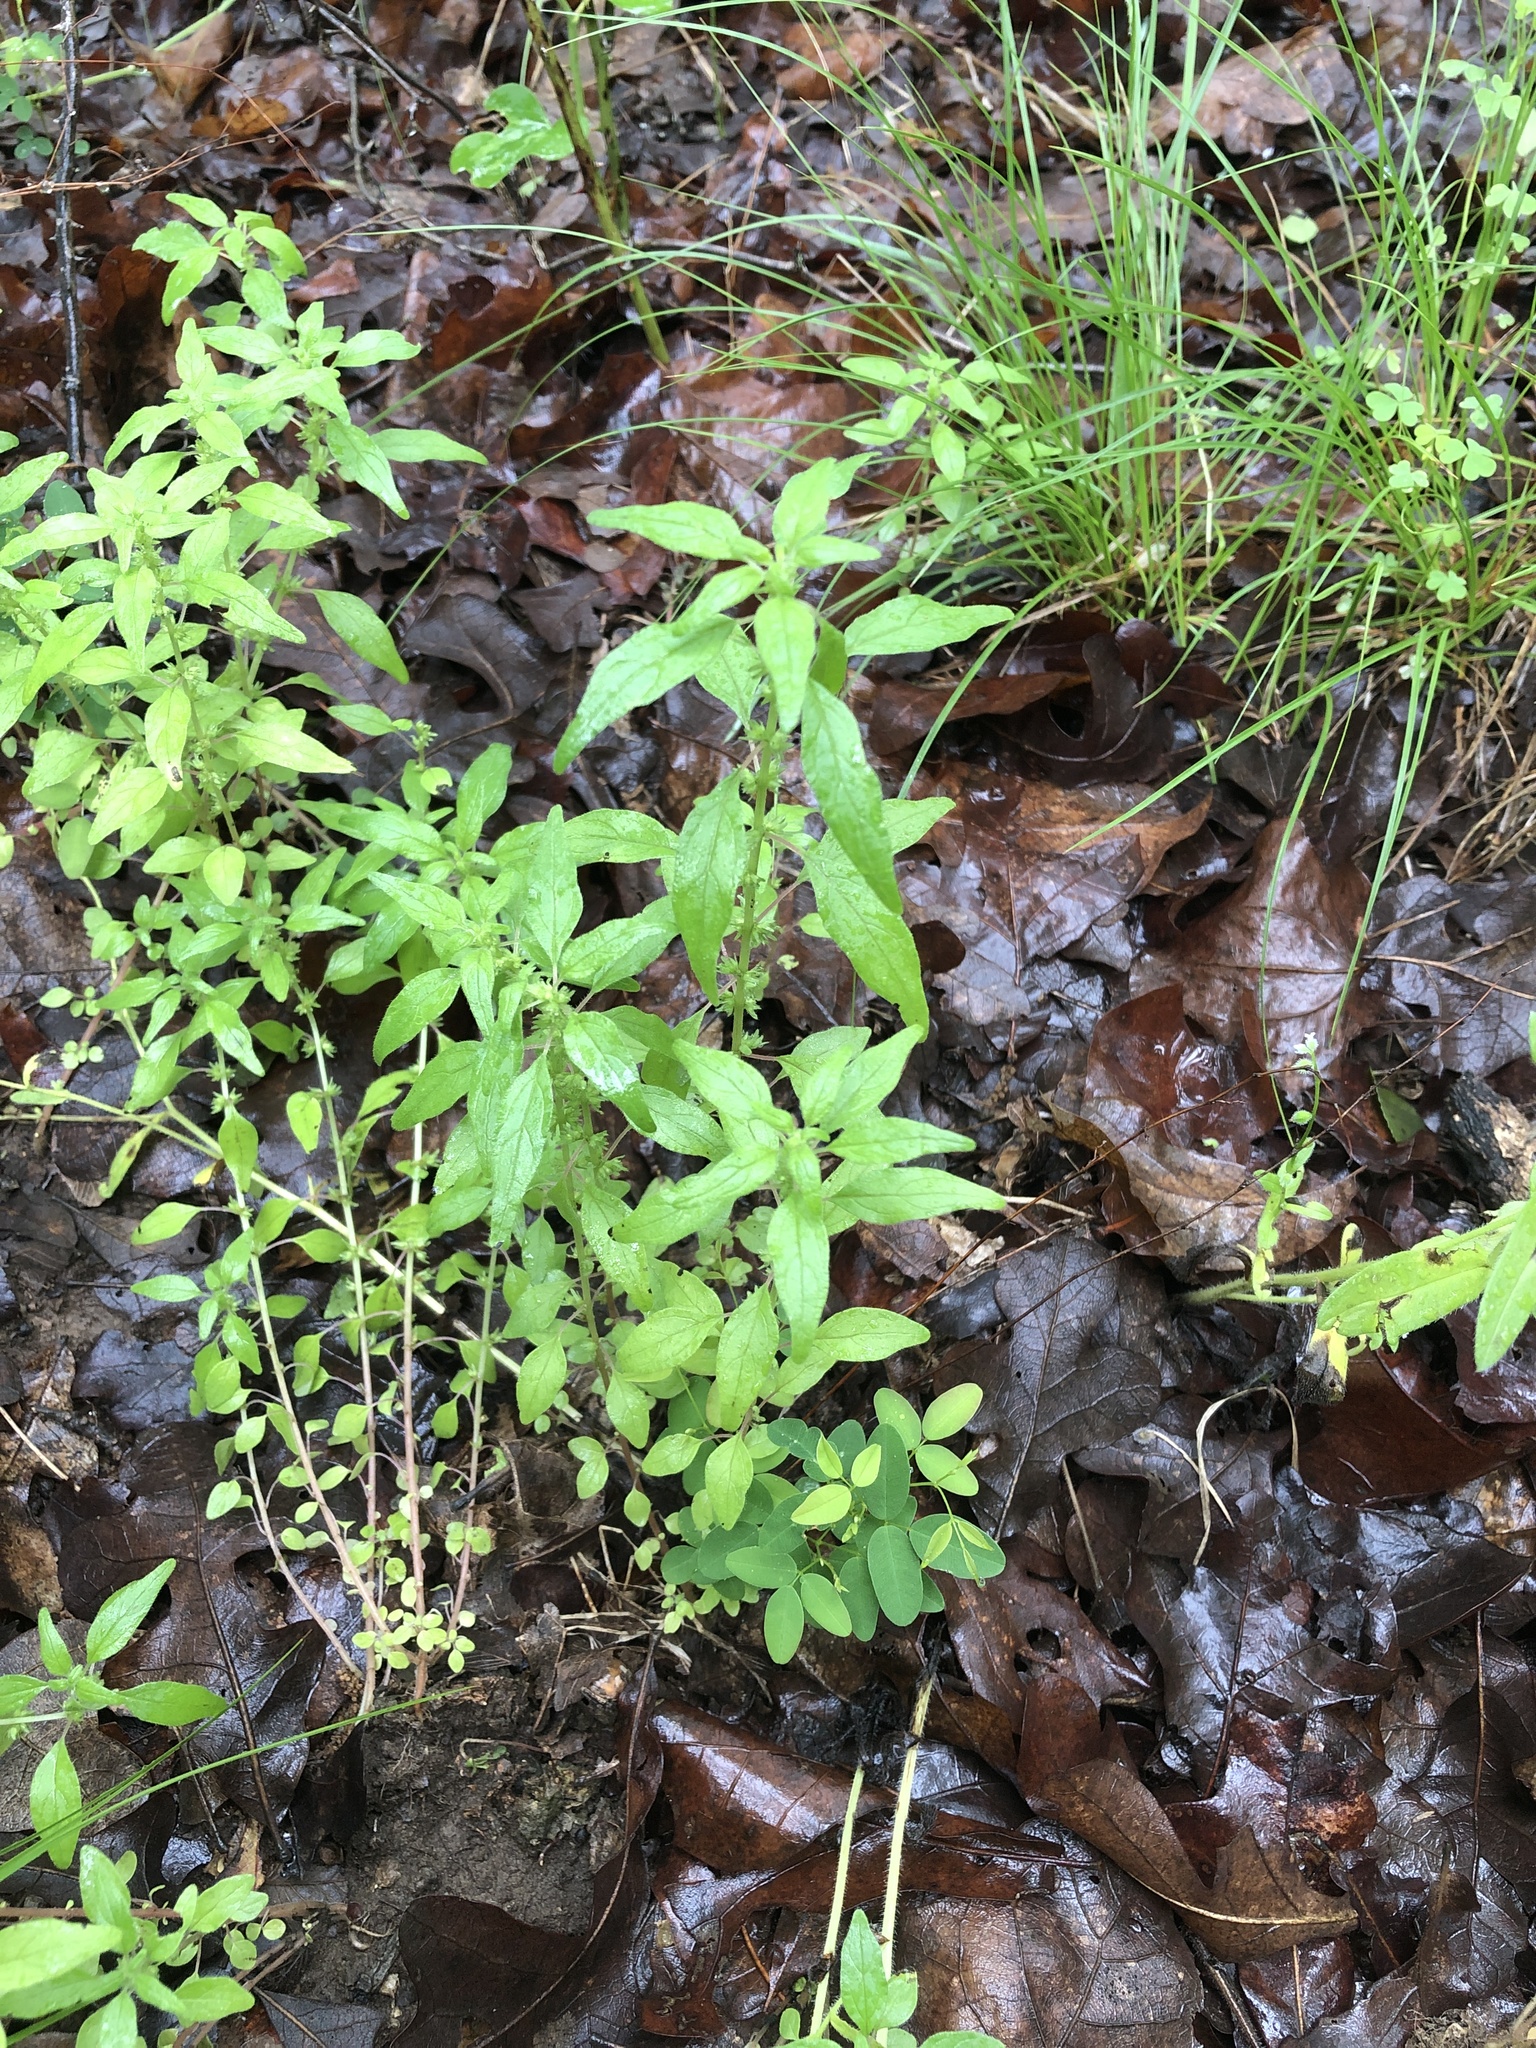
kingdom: Plantae
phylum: Tracheophyta
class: Magnoliopsida
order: Rosales
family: Urticaceae
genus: Parietaria
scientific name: Parietaria pensylvanica
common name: Pennsylvania pellitory
